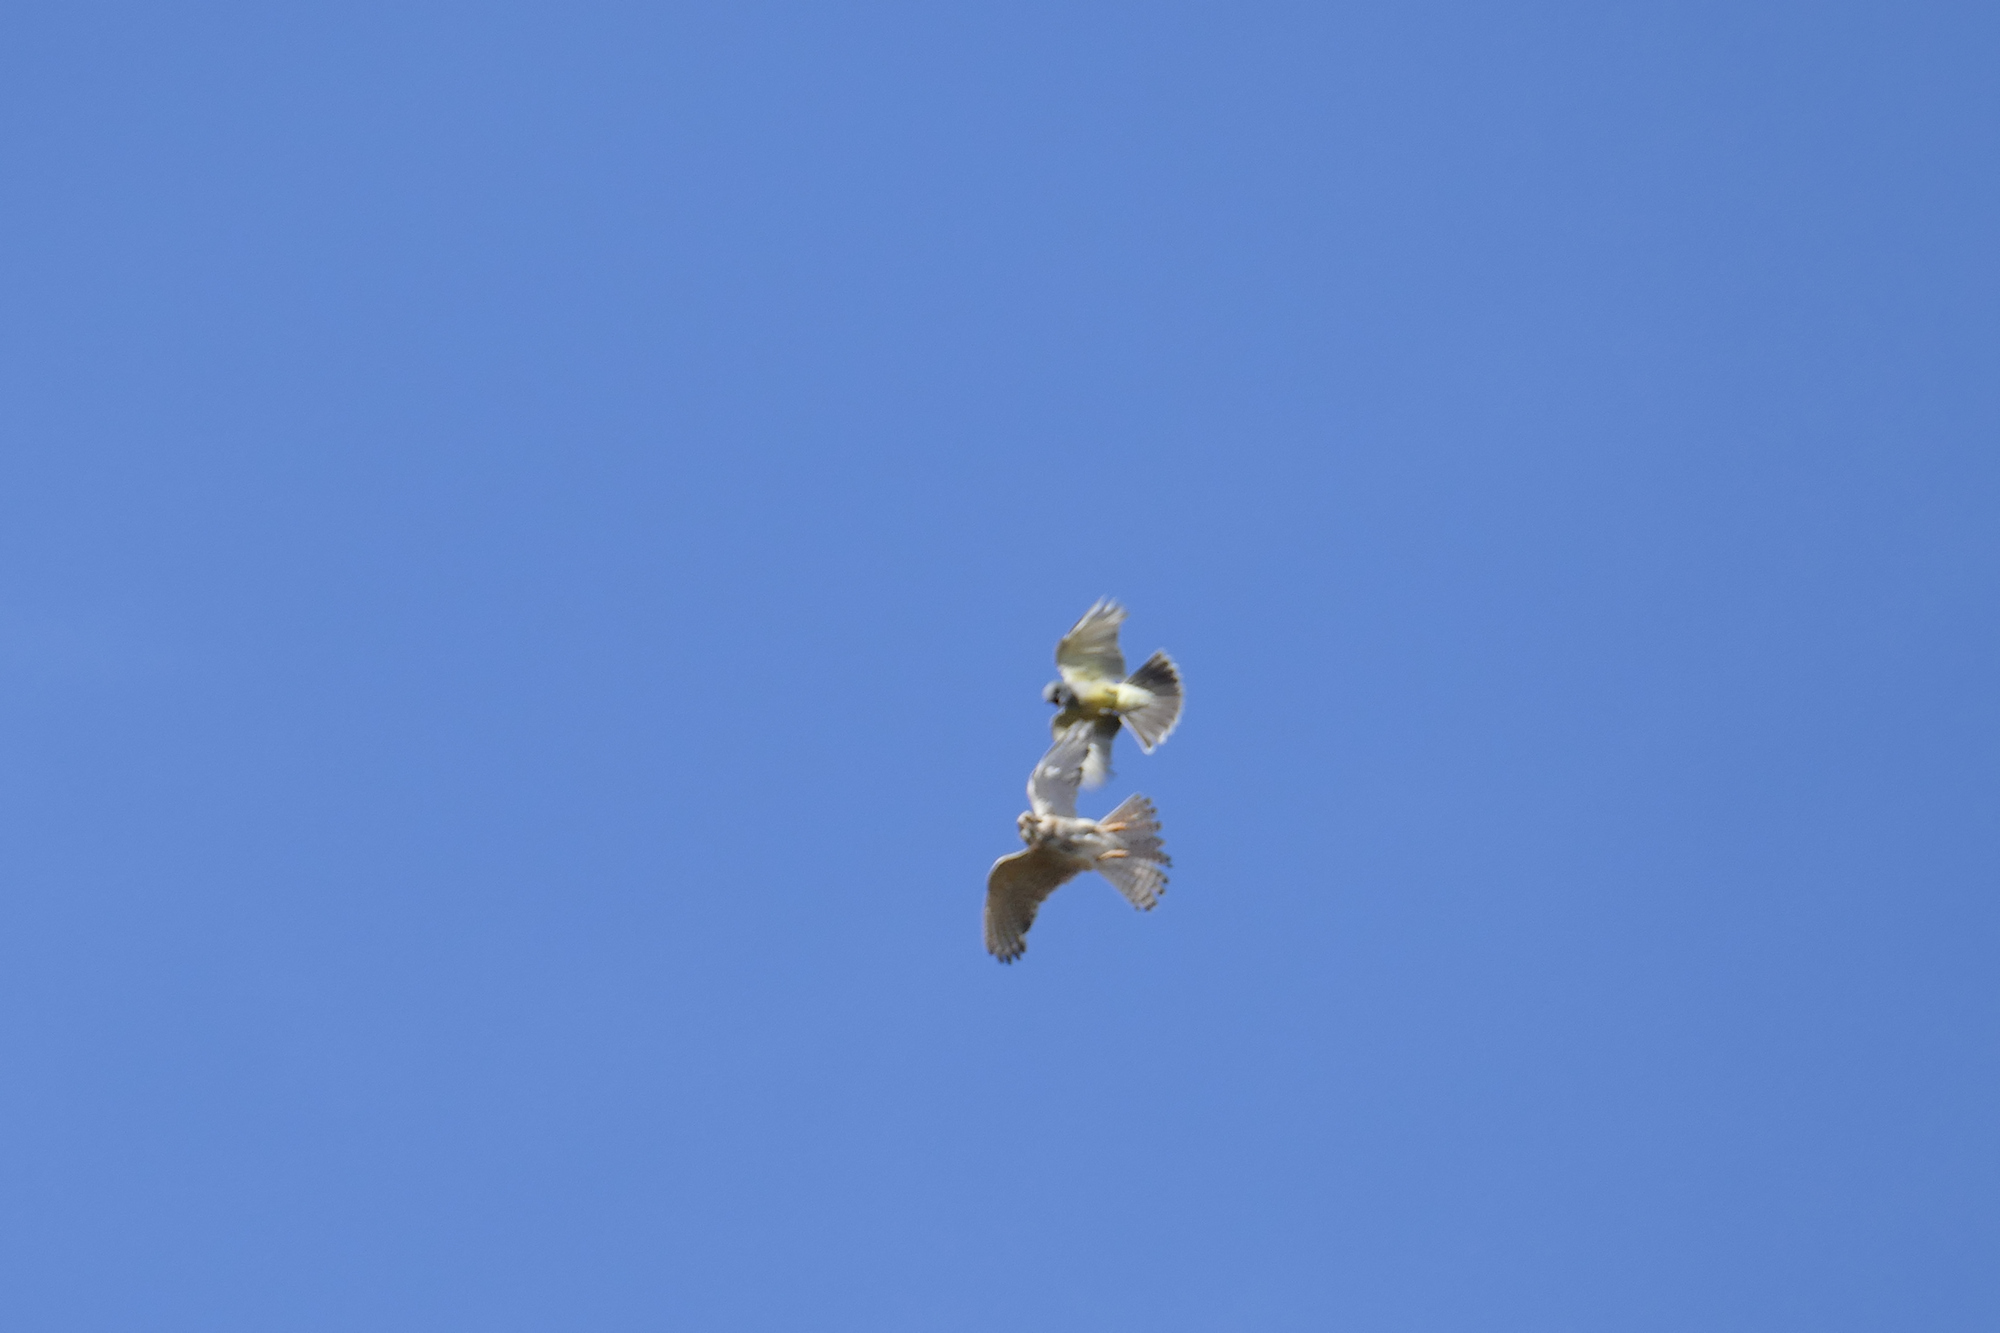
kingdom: Animalia
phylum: Chordata
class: Aves
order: Passeriformes
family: Tyrannidae
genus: Tyrannus
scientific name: Tyrannus vociferans
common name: Cassin's kingbird
